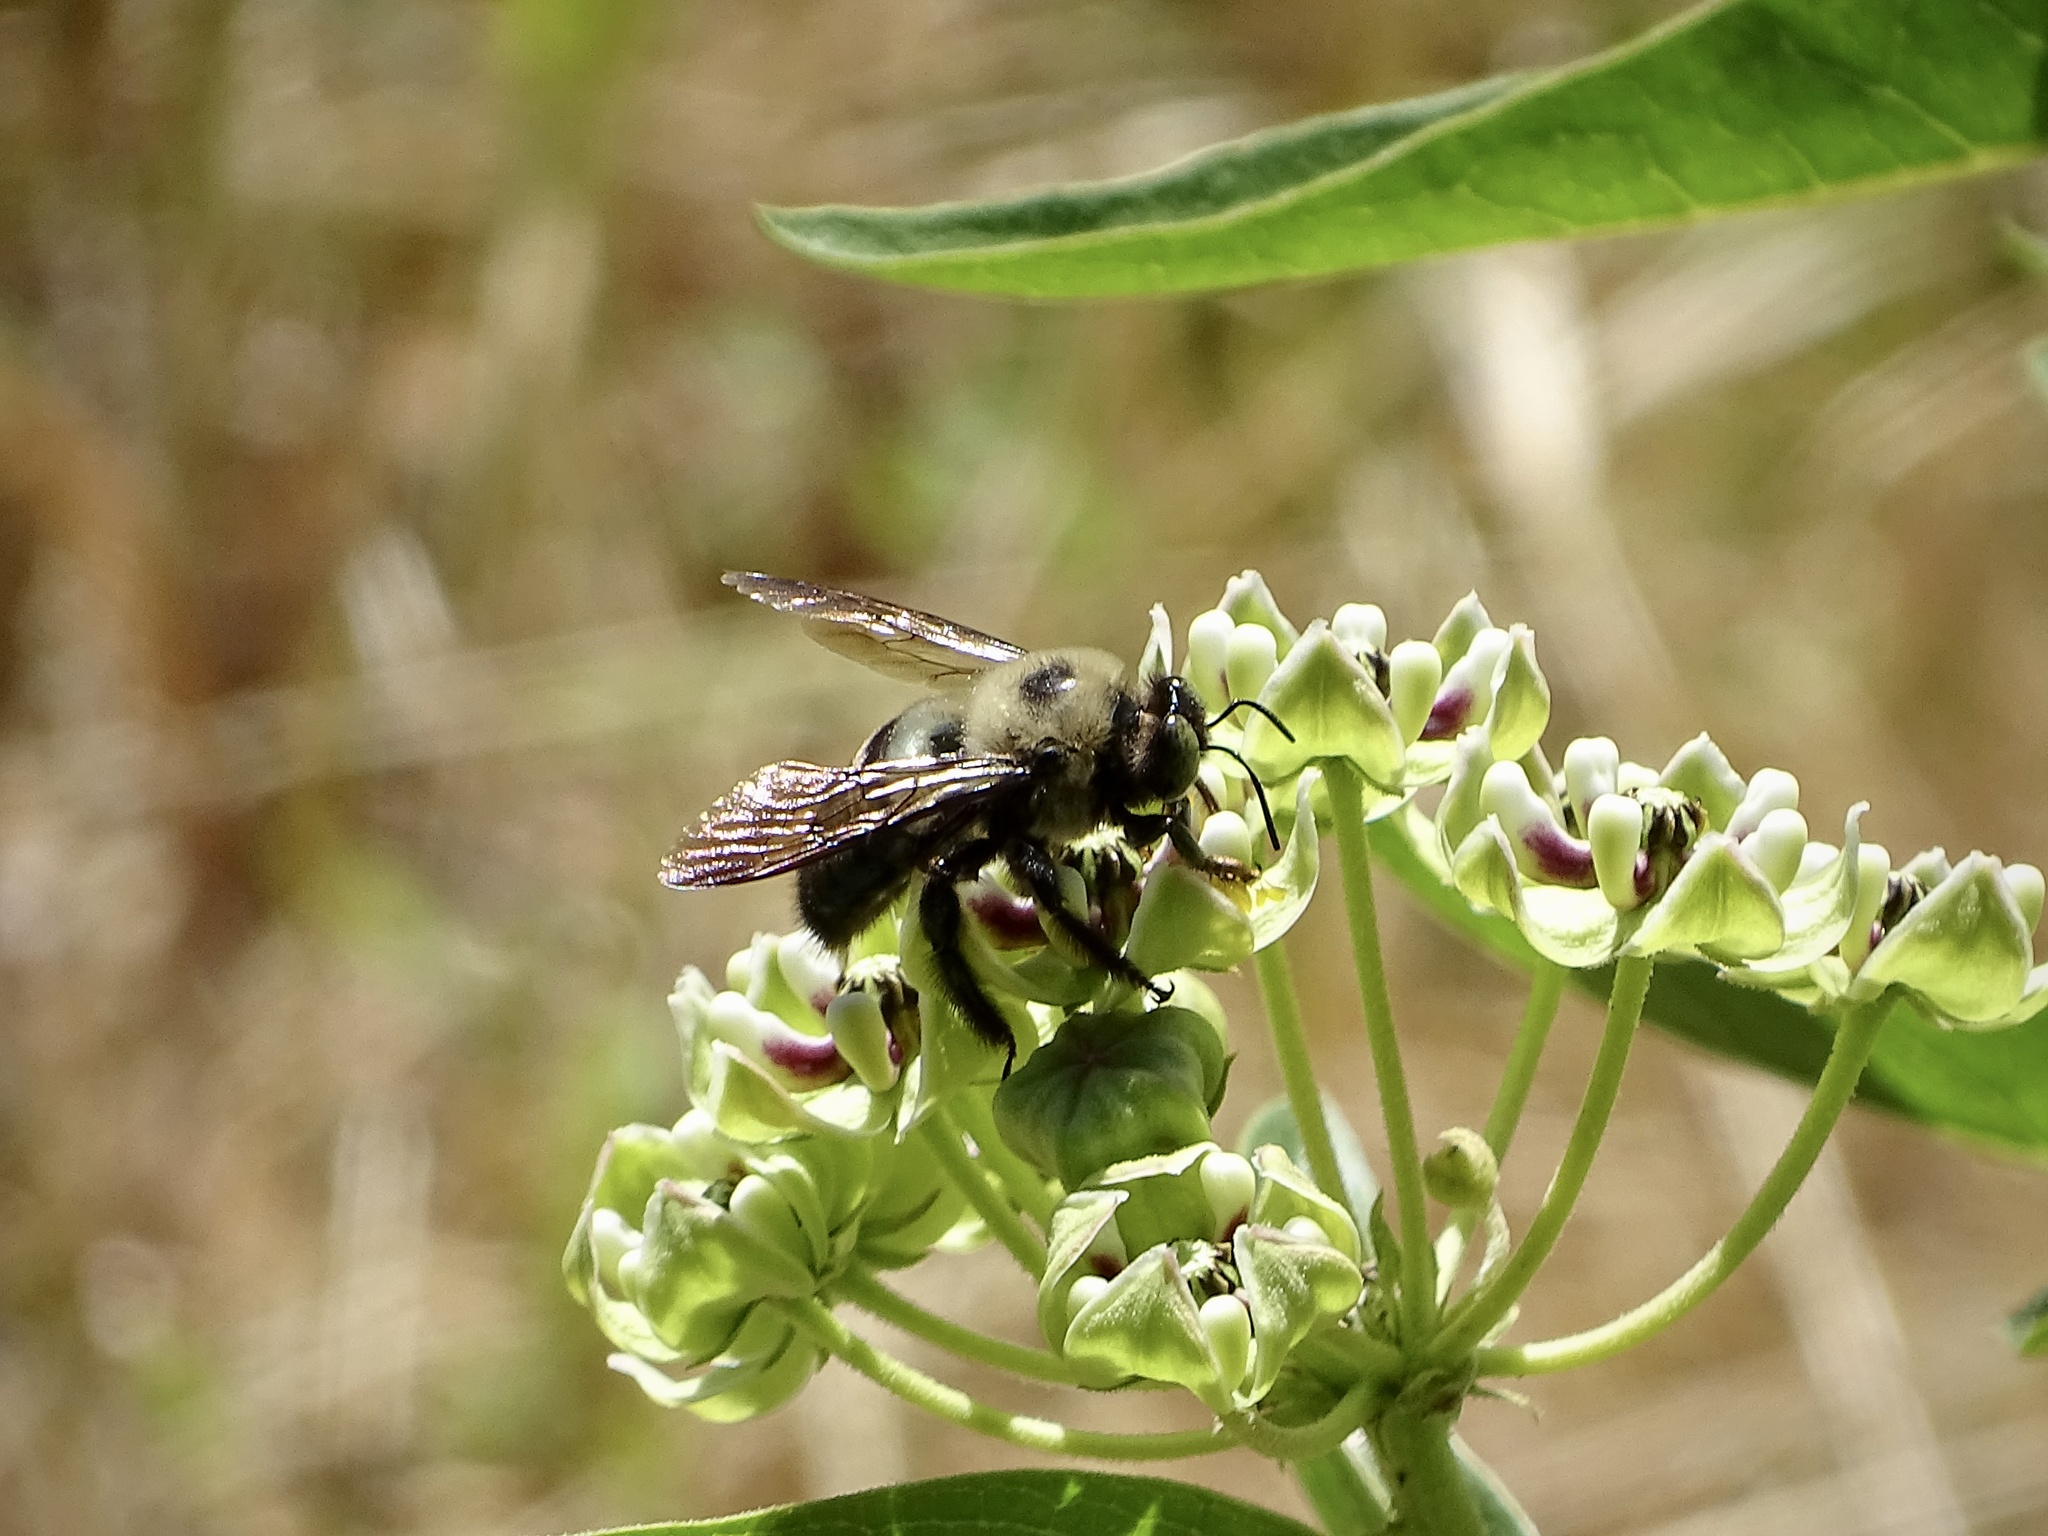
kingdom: Animalia
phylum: Arthropoda
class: Insecta
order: Hymenoptera
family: Apidae
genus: Xylocopa
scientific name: Xylocopa virginica
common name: Carpenter bee
